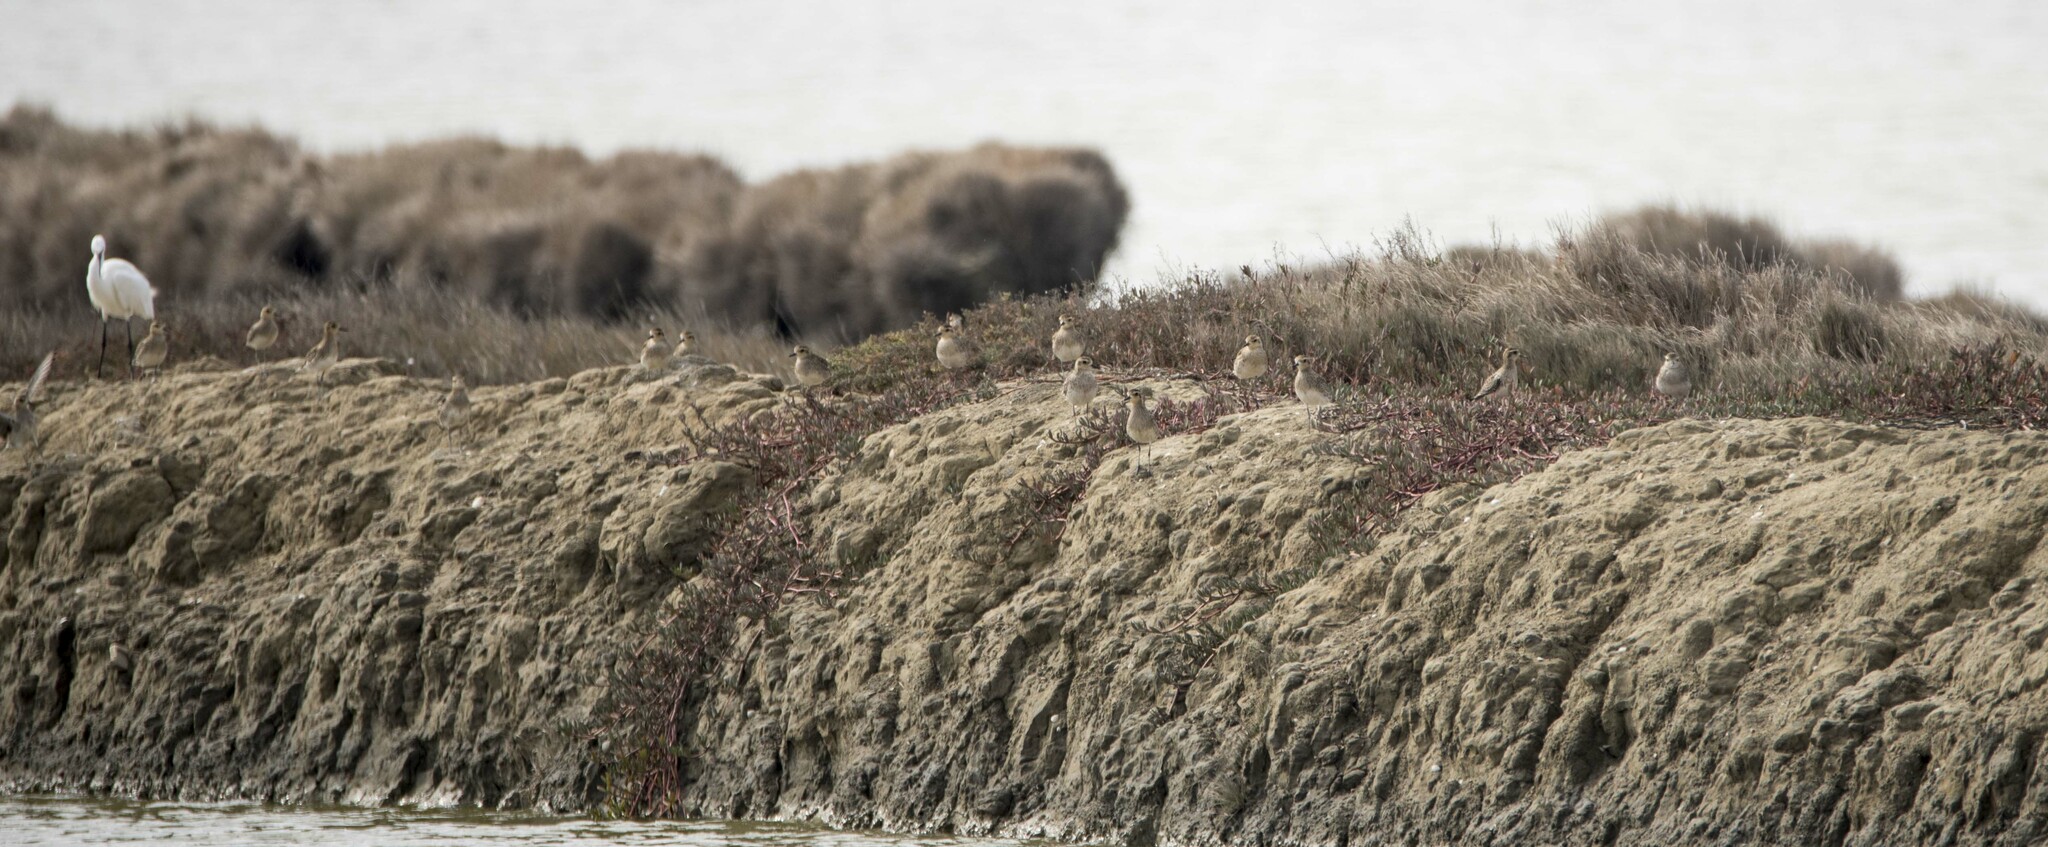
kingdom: Animalia
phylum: Chordata
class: Aves
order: Charadriiformes
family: Charadriidae
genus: Pluvialis
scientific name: Pluvialis fulva
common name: Pacific golden plover
